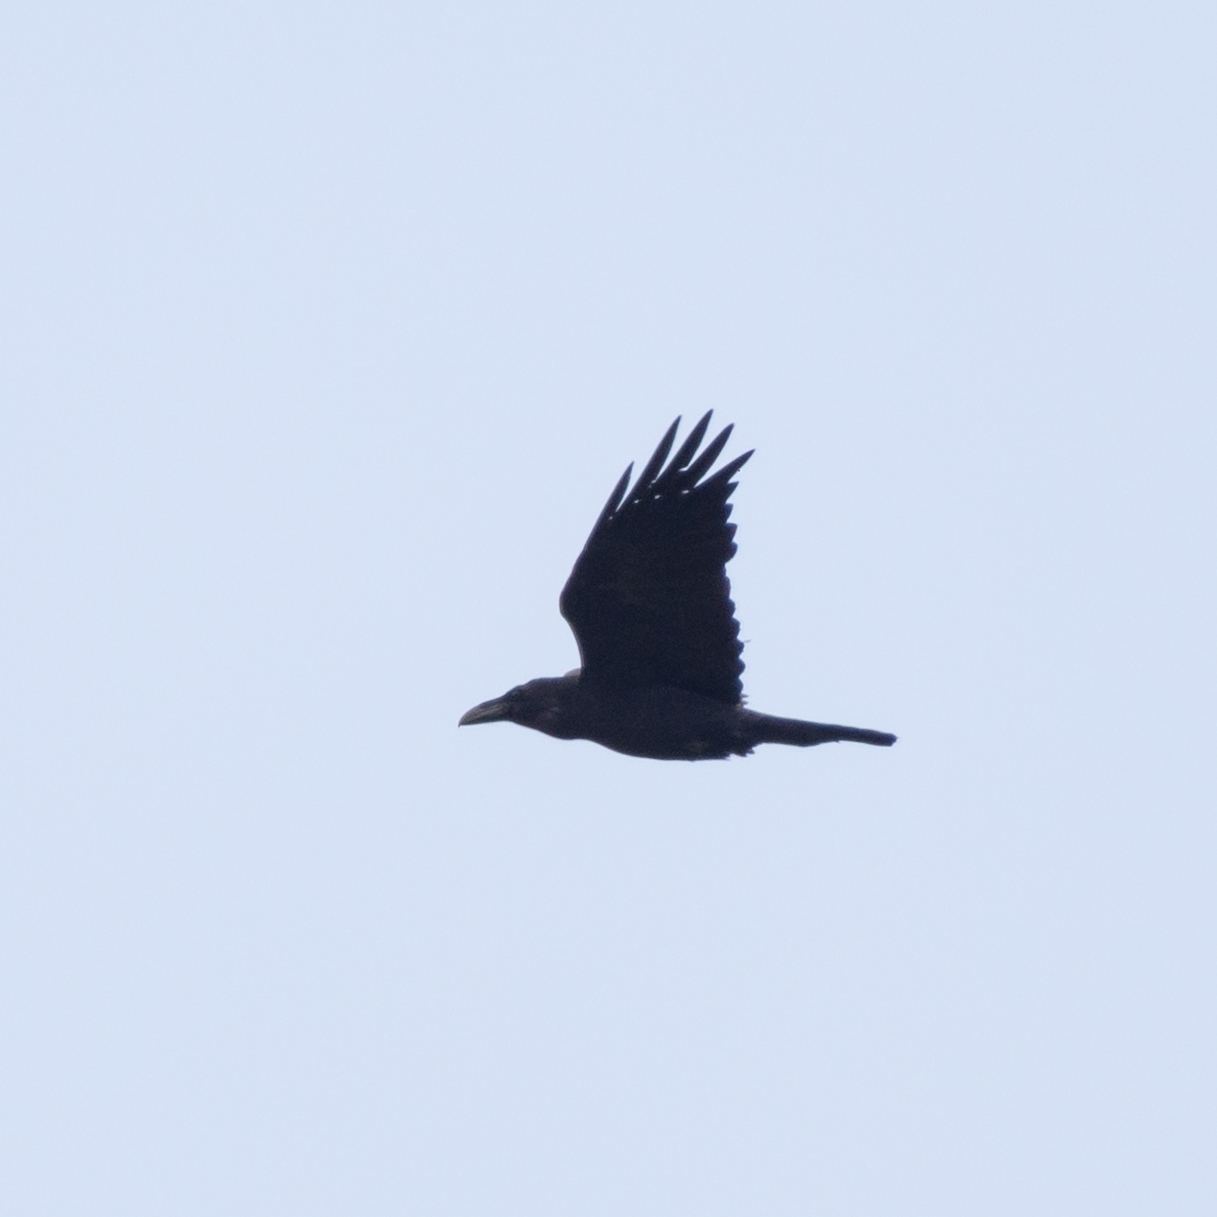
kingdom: Animalia
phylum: Chordata
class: Aves
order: Passeriformes
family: Corvidae
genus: Corvus
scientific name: Corvus corax
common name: Common raven
